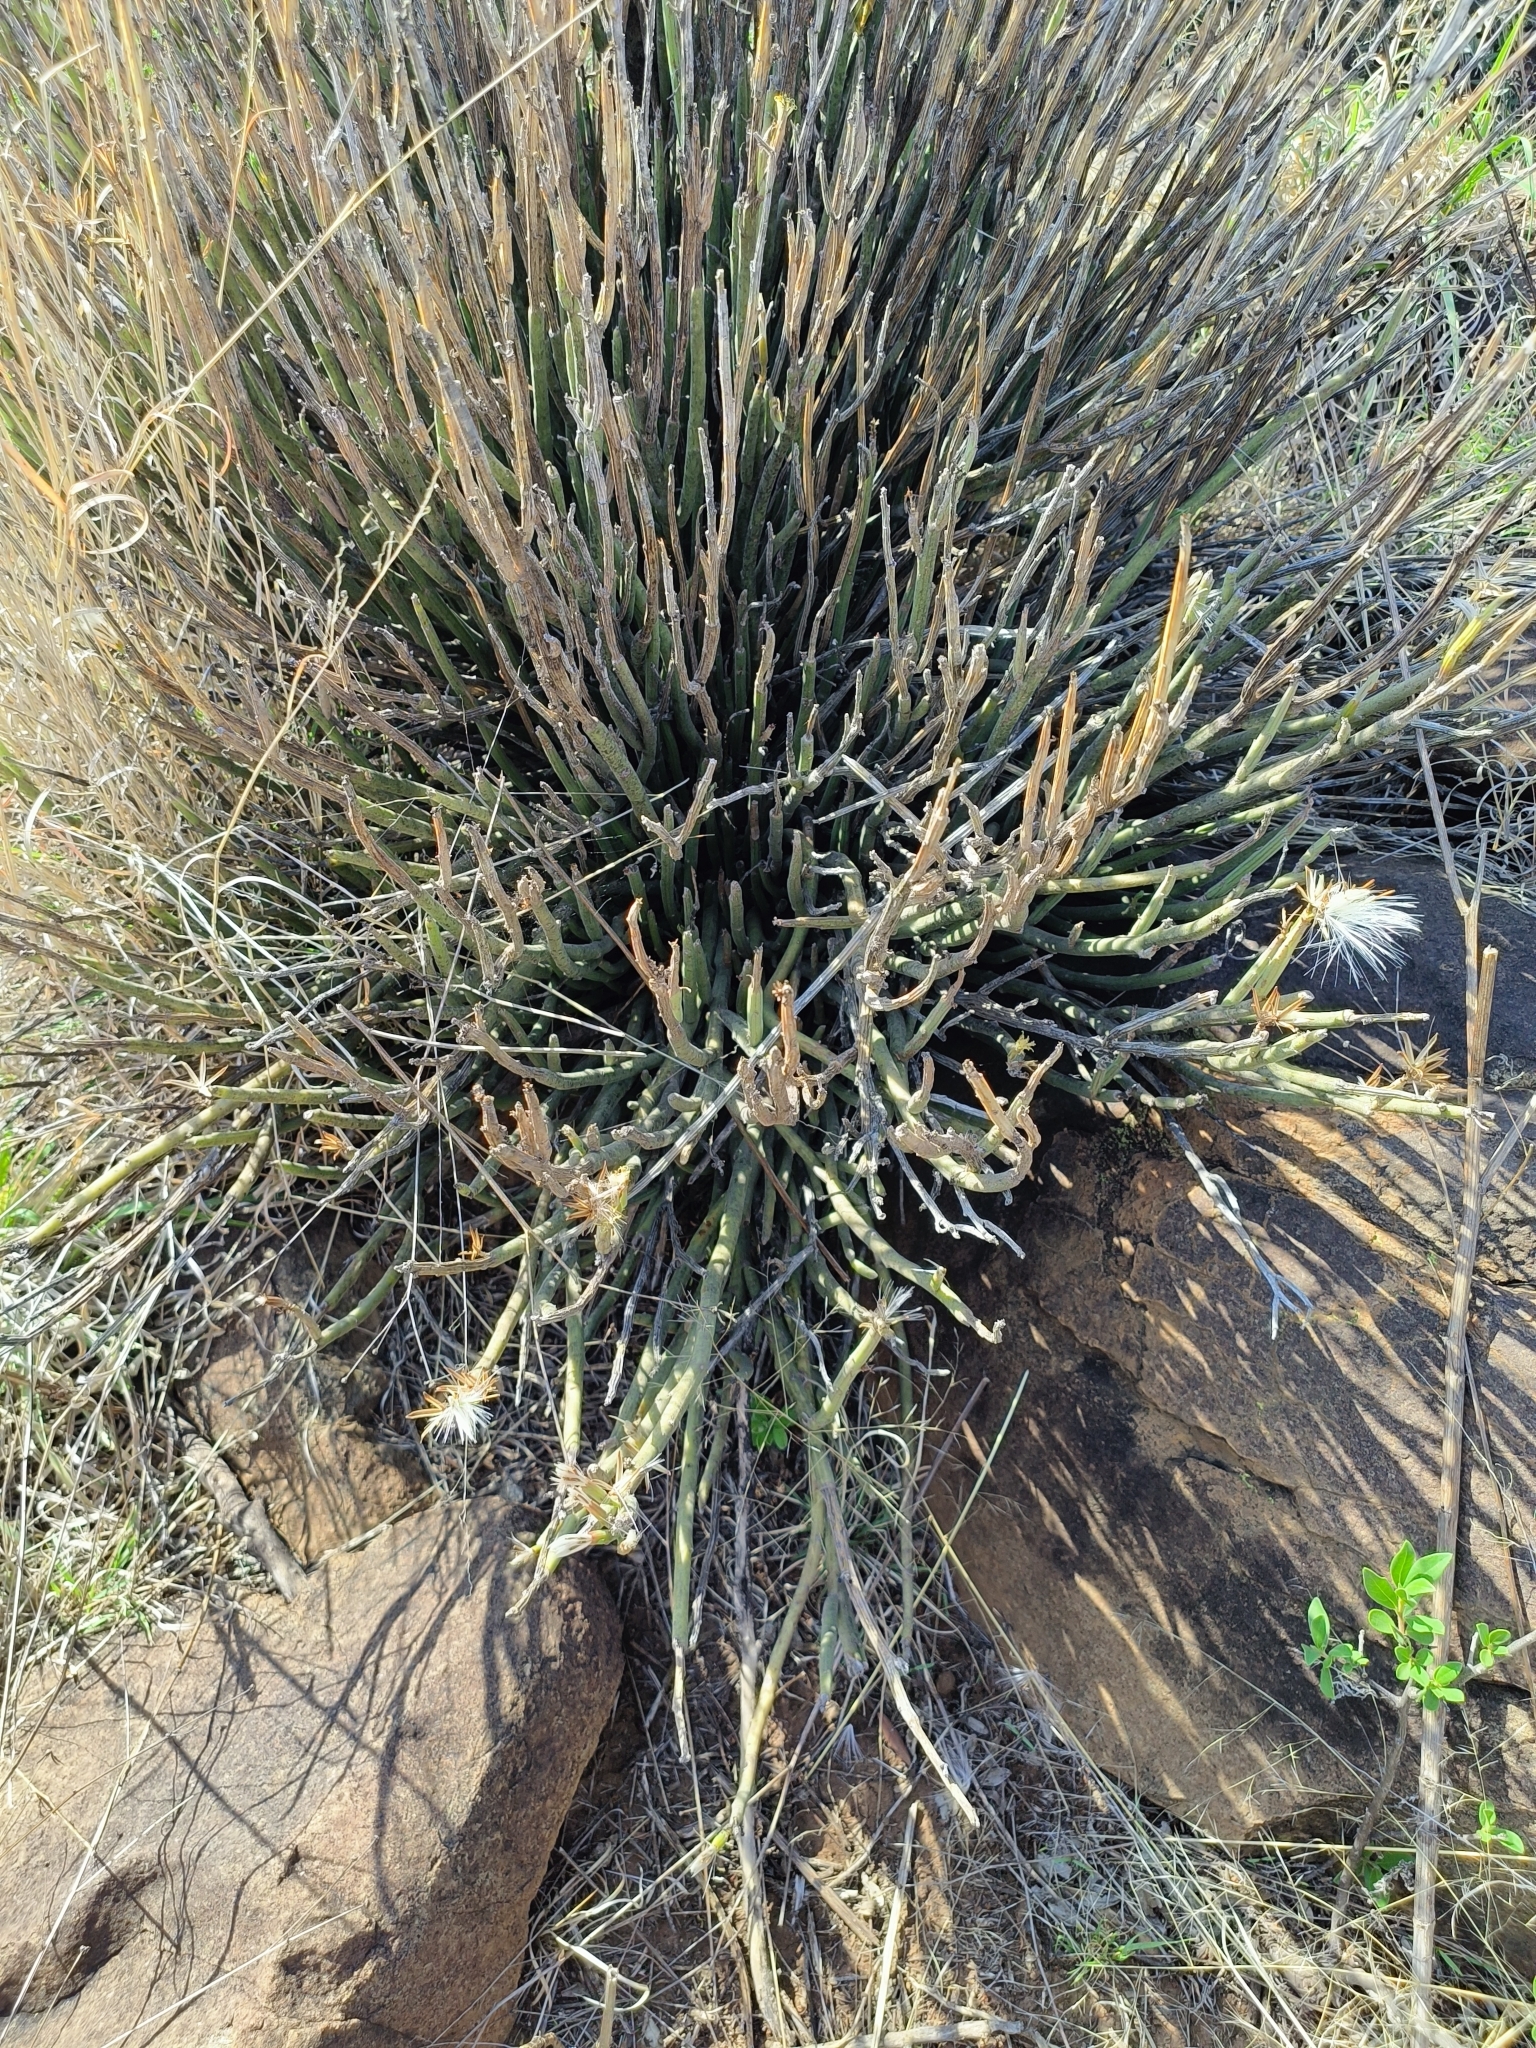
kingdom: Plantae
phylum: Tracheophyta
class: Magnoliopsida
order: Asterales
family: Asteraceae
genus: Curio
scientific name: Curio avasimontanus
